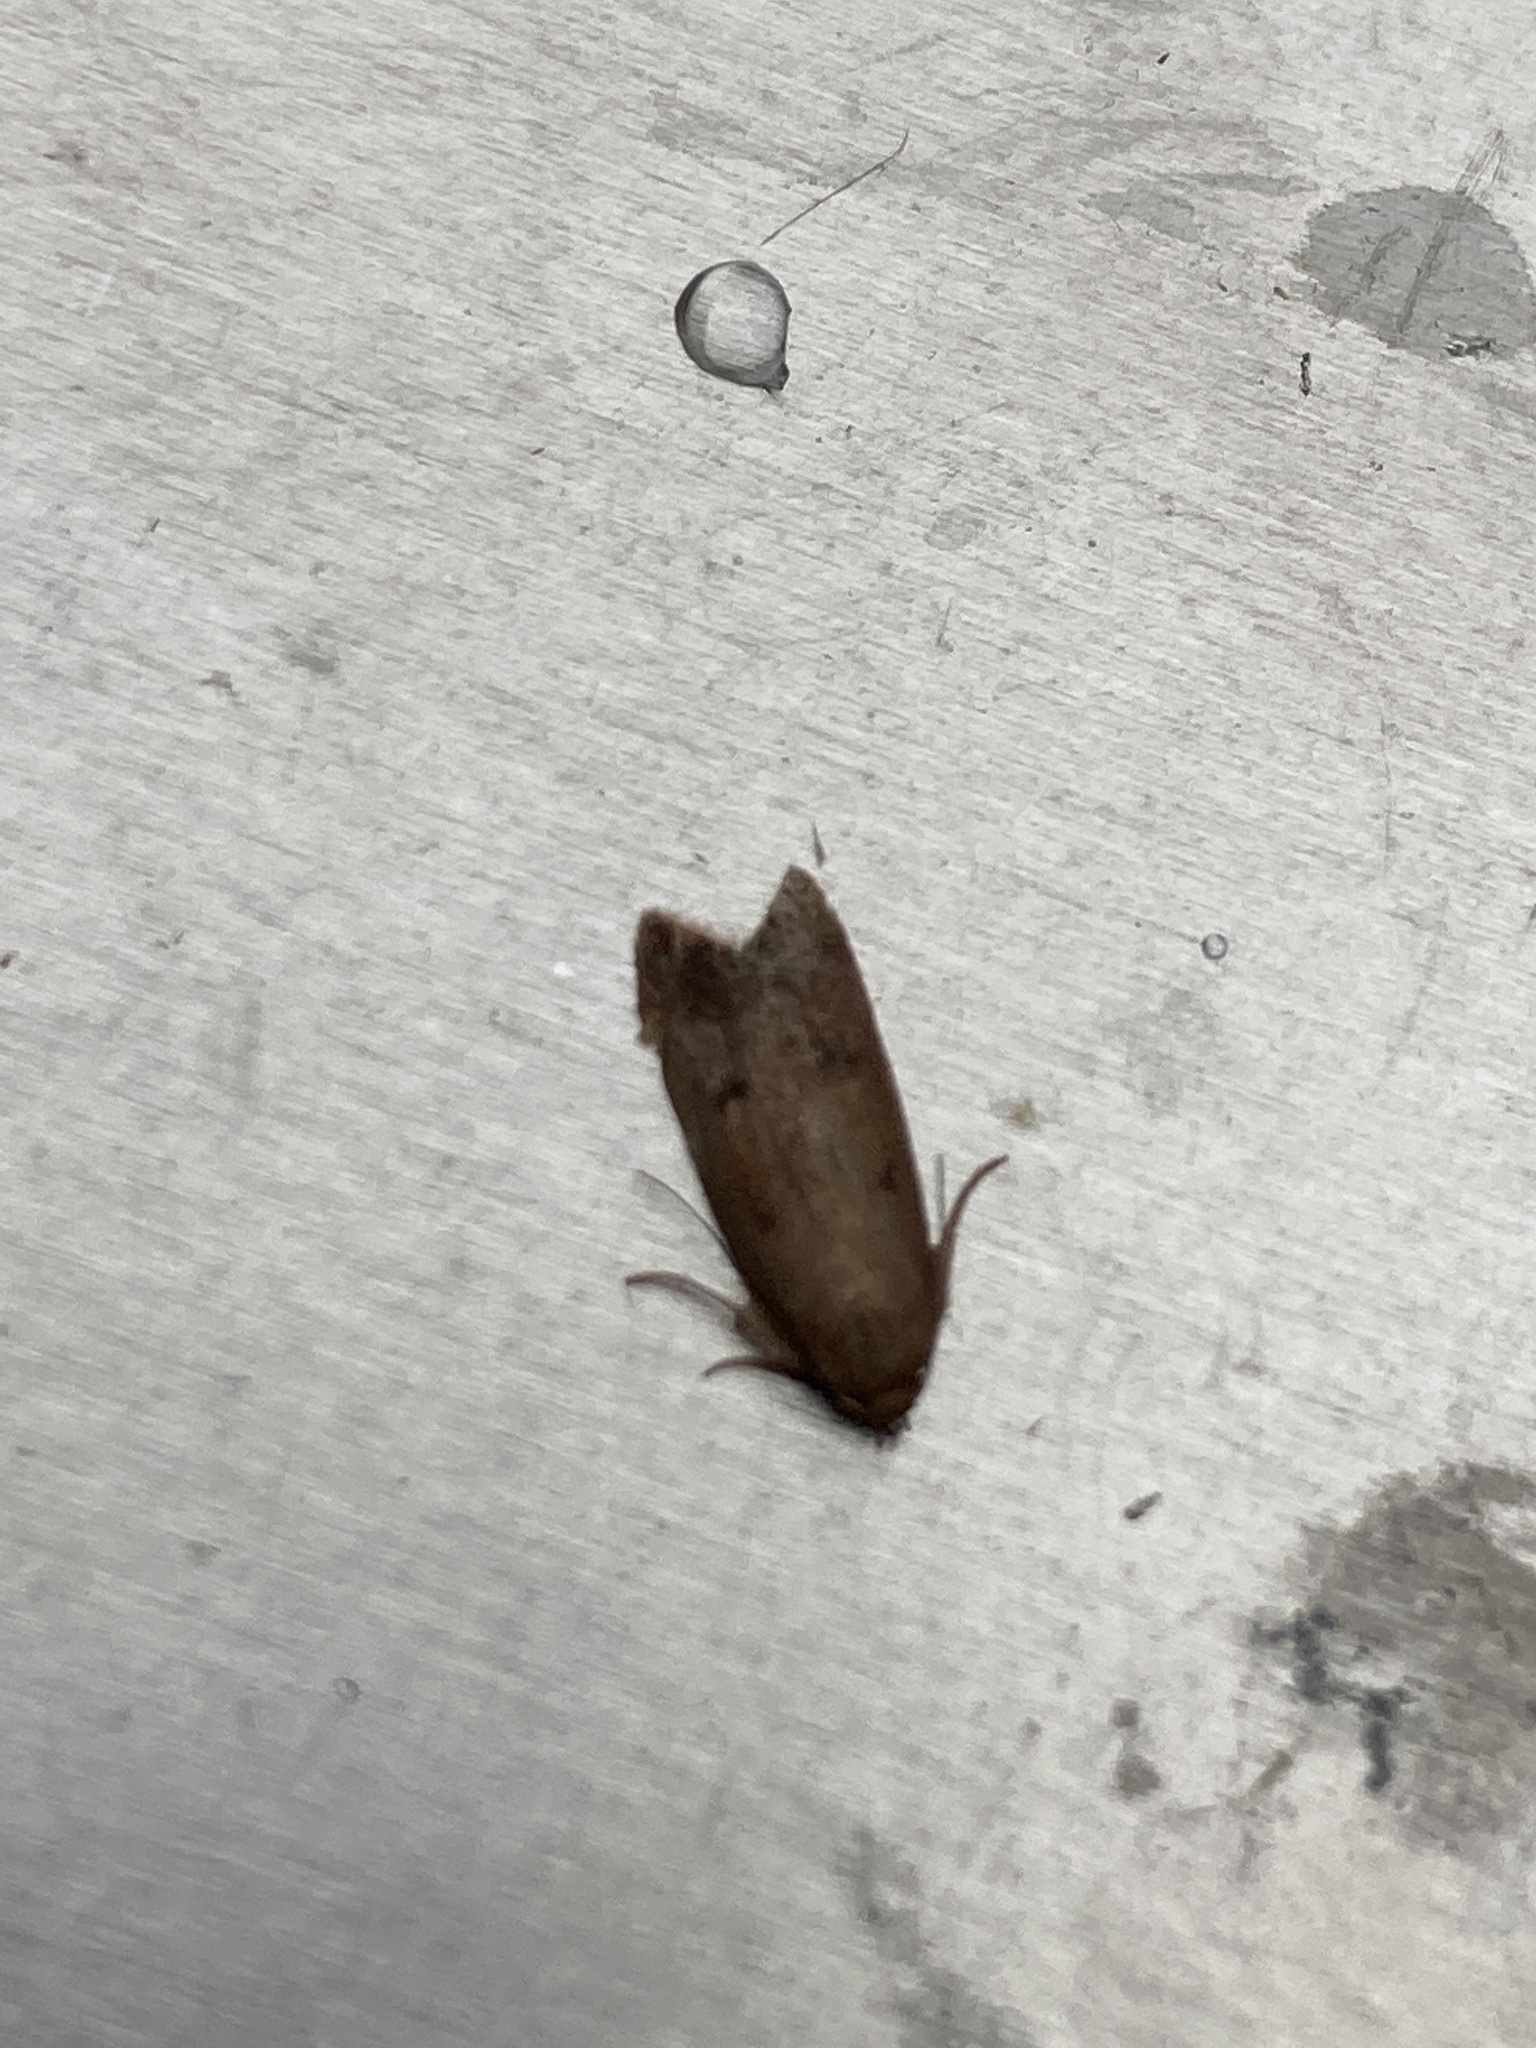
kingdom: Animalia
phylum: Arthropoda
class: Insecta
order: Lepidoptera
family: Oecophoridae
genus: Tachystola
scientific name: Tachystola acroxantha
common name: Ruddy streak
